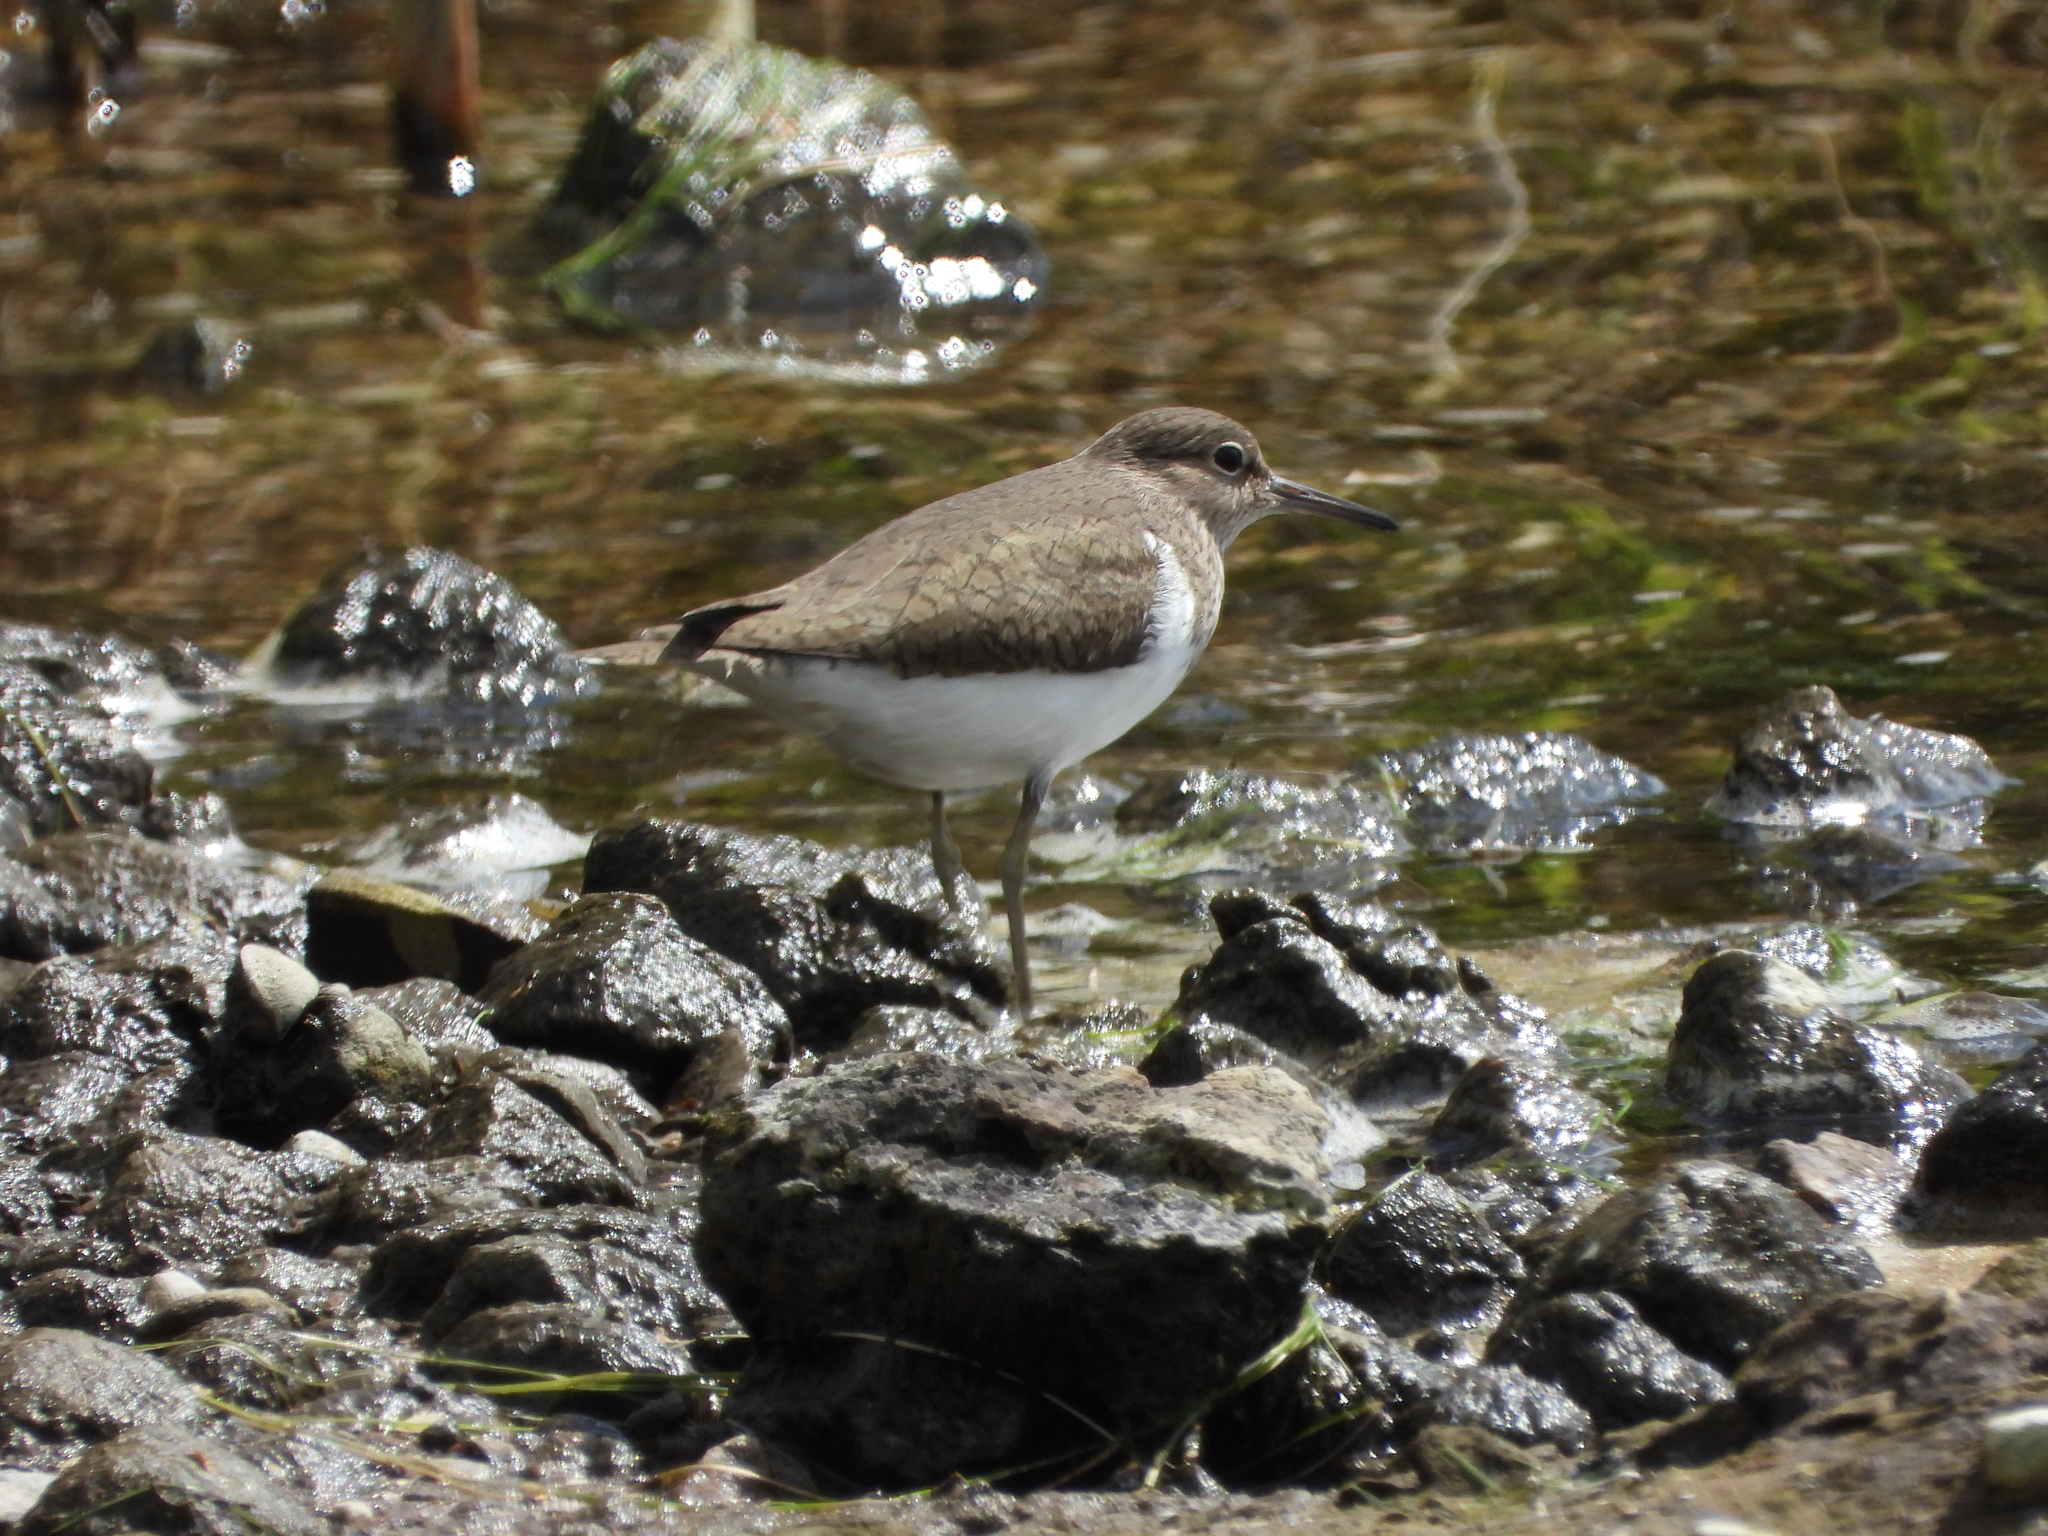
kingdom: Animalia
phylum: Chordata
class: Aves
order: Charadriiformes
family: Scolopacidae
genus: Actitis
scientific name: Actitis hypoleucos
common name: Common sandpiper
